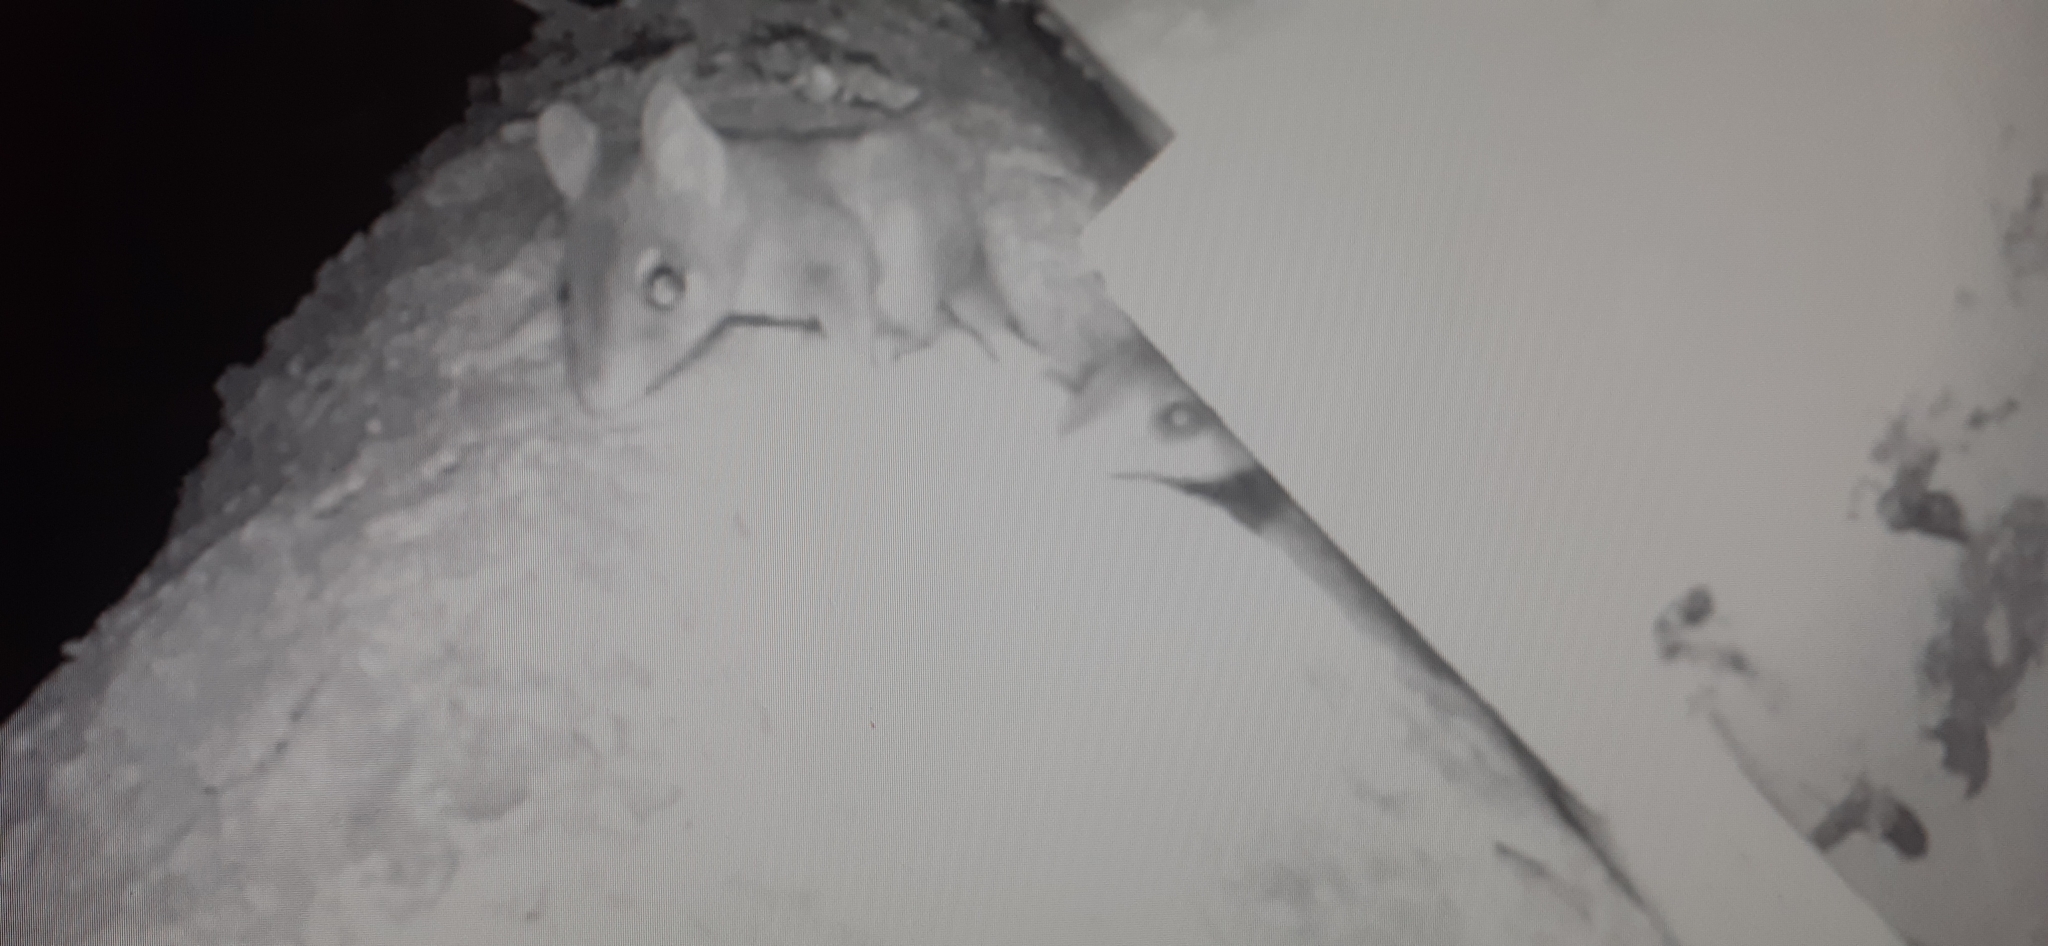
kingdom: Animalia
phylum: Chordata
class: Mammalia
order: Dasyuromorphia
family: Dasyuridae
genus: Phascogale
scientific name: Phascogale tapoatafa
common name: Brush-tailed phascogale
